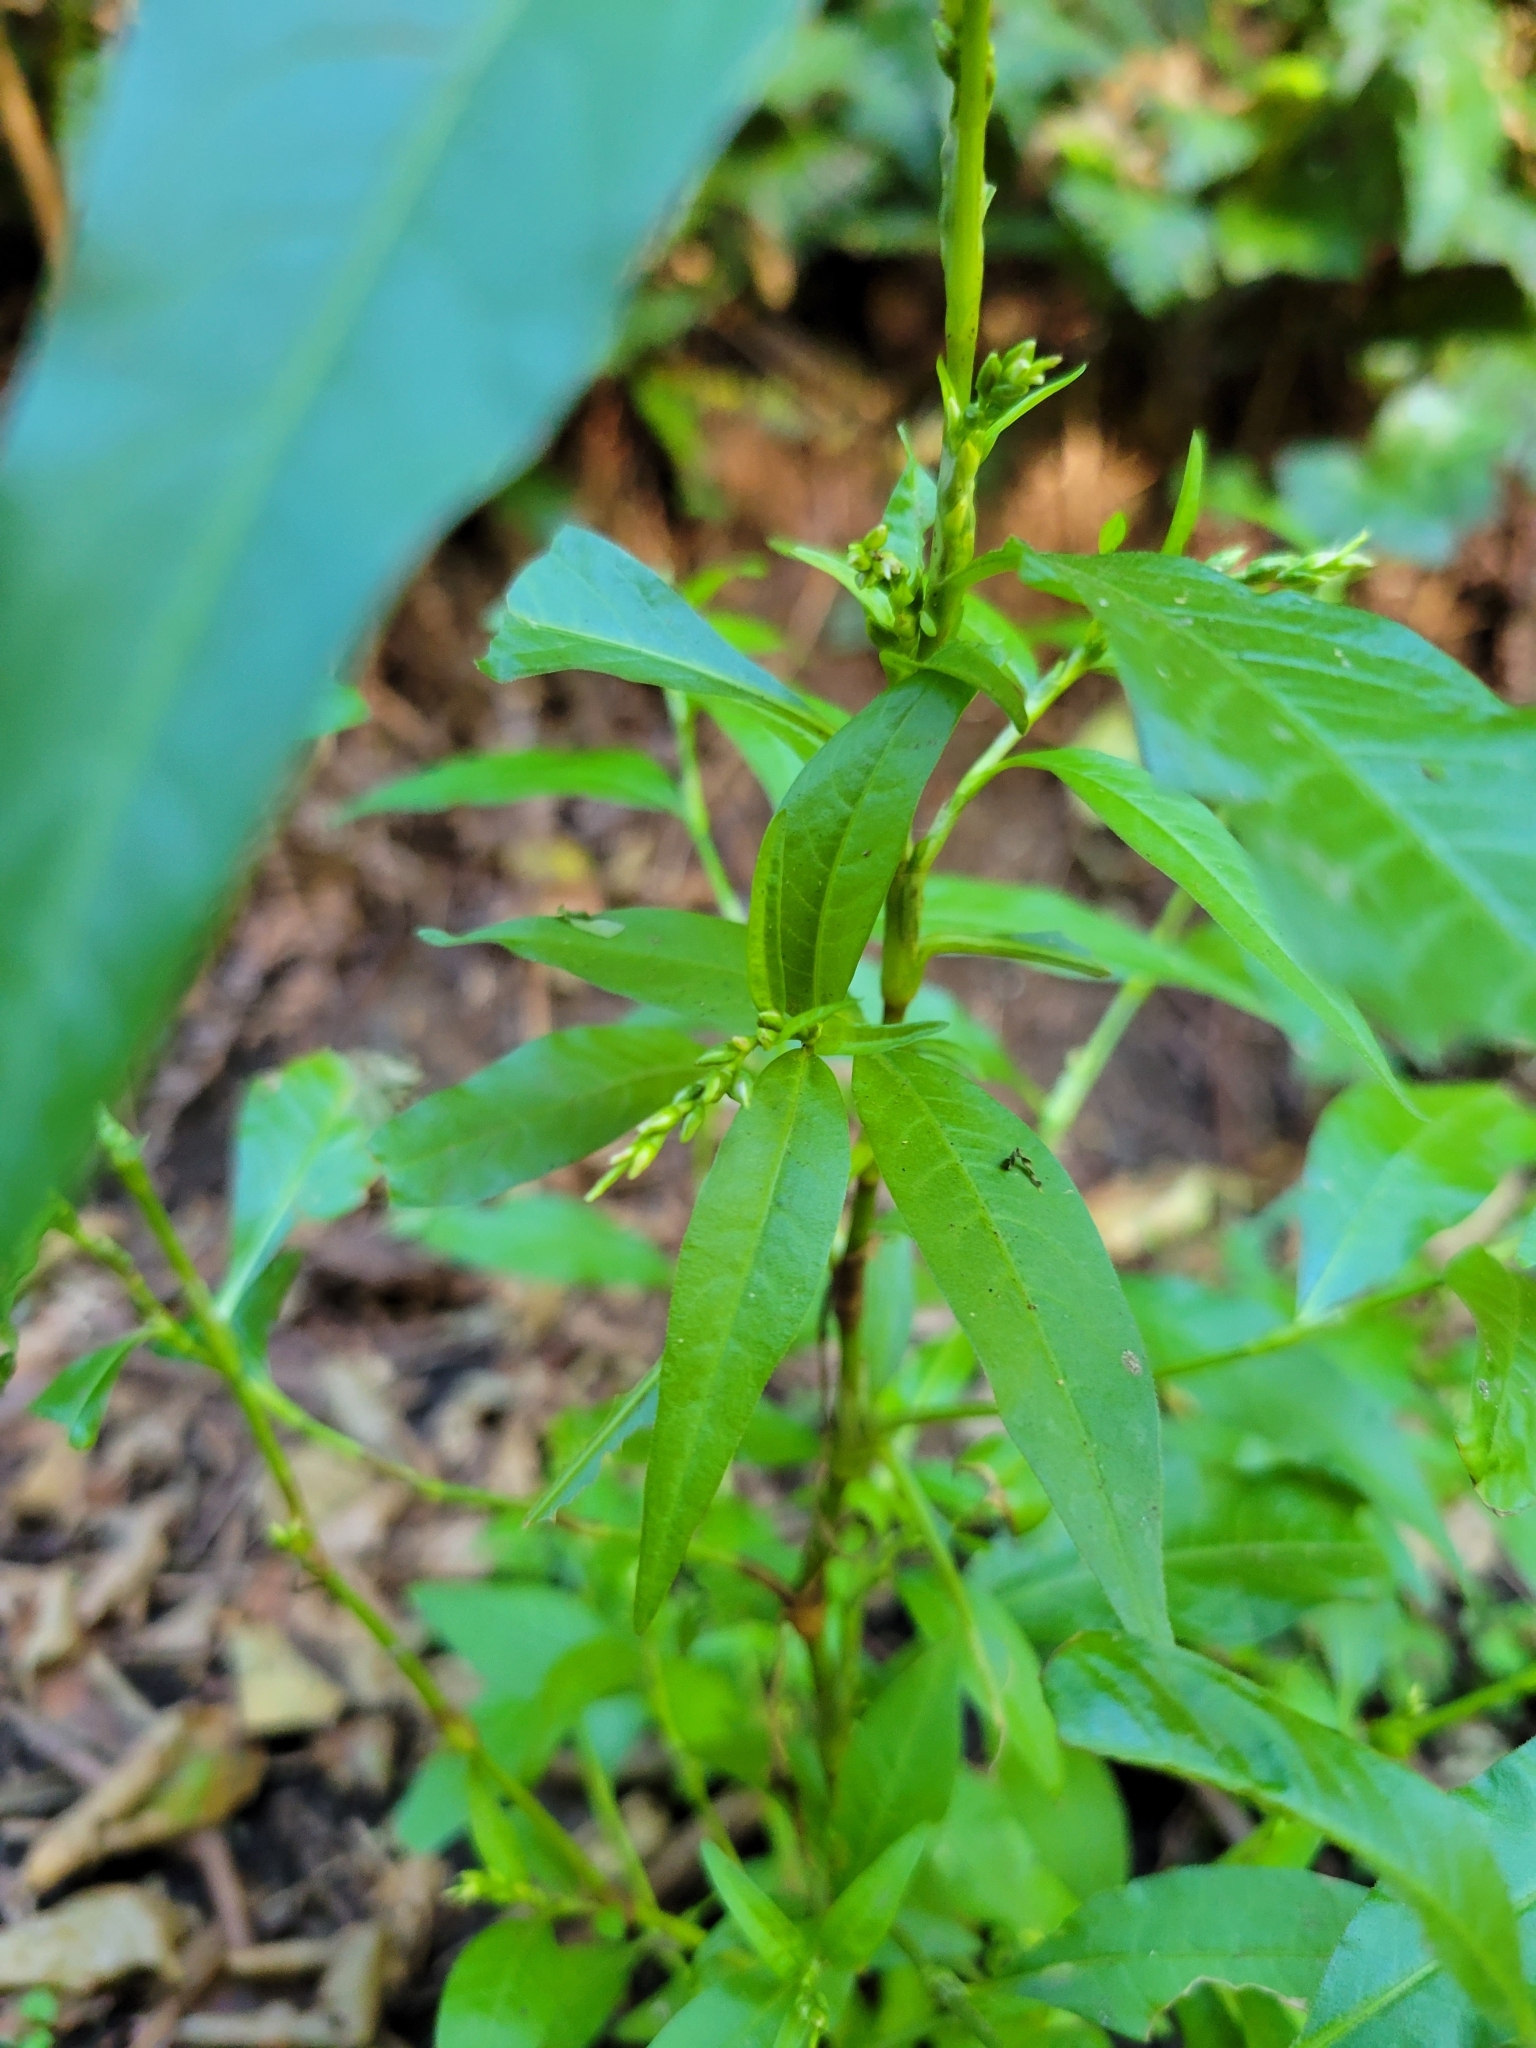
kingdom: Plantae
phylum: Tracheophyta
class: Magnoliopsida
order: Caryophyllales
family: Polygonaceae
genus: Persicaria
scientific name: Persicaria hydropiper
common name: Water-pepper
